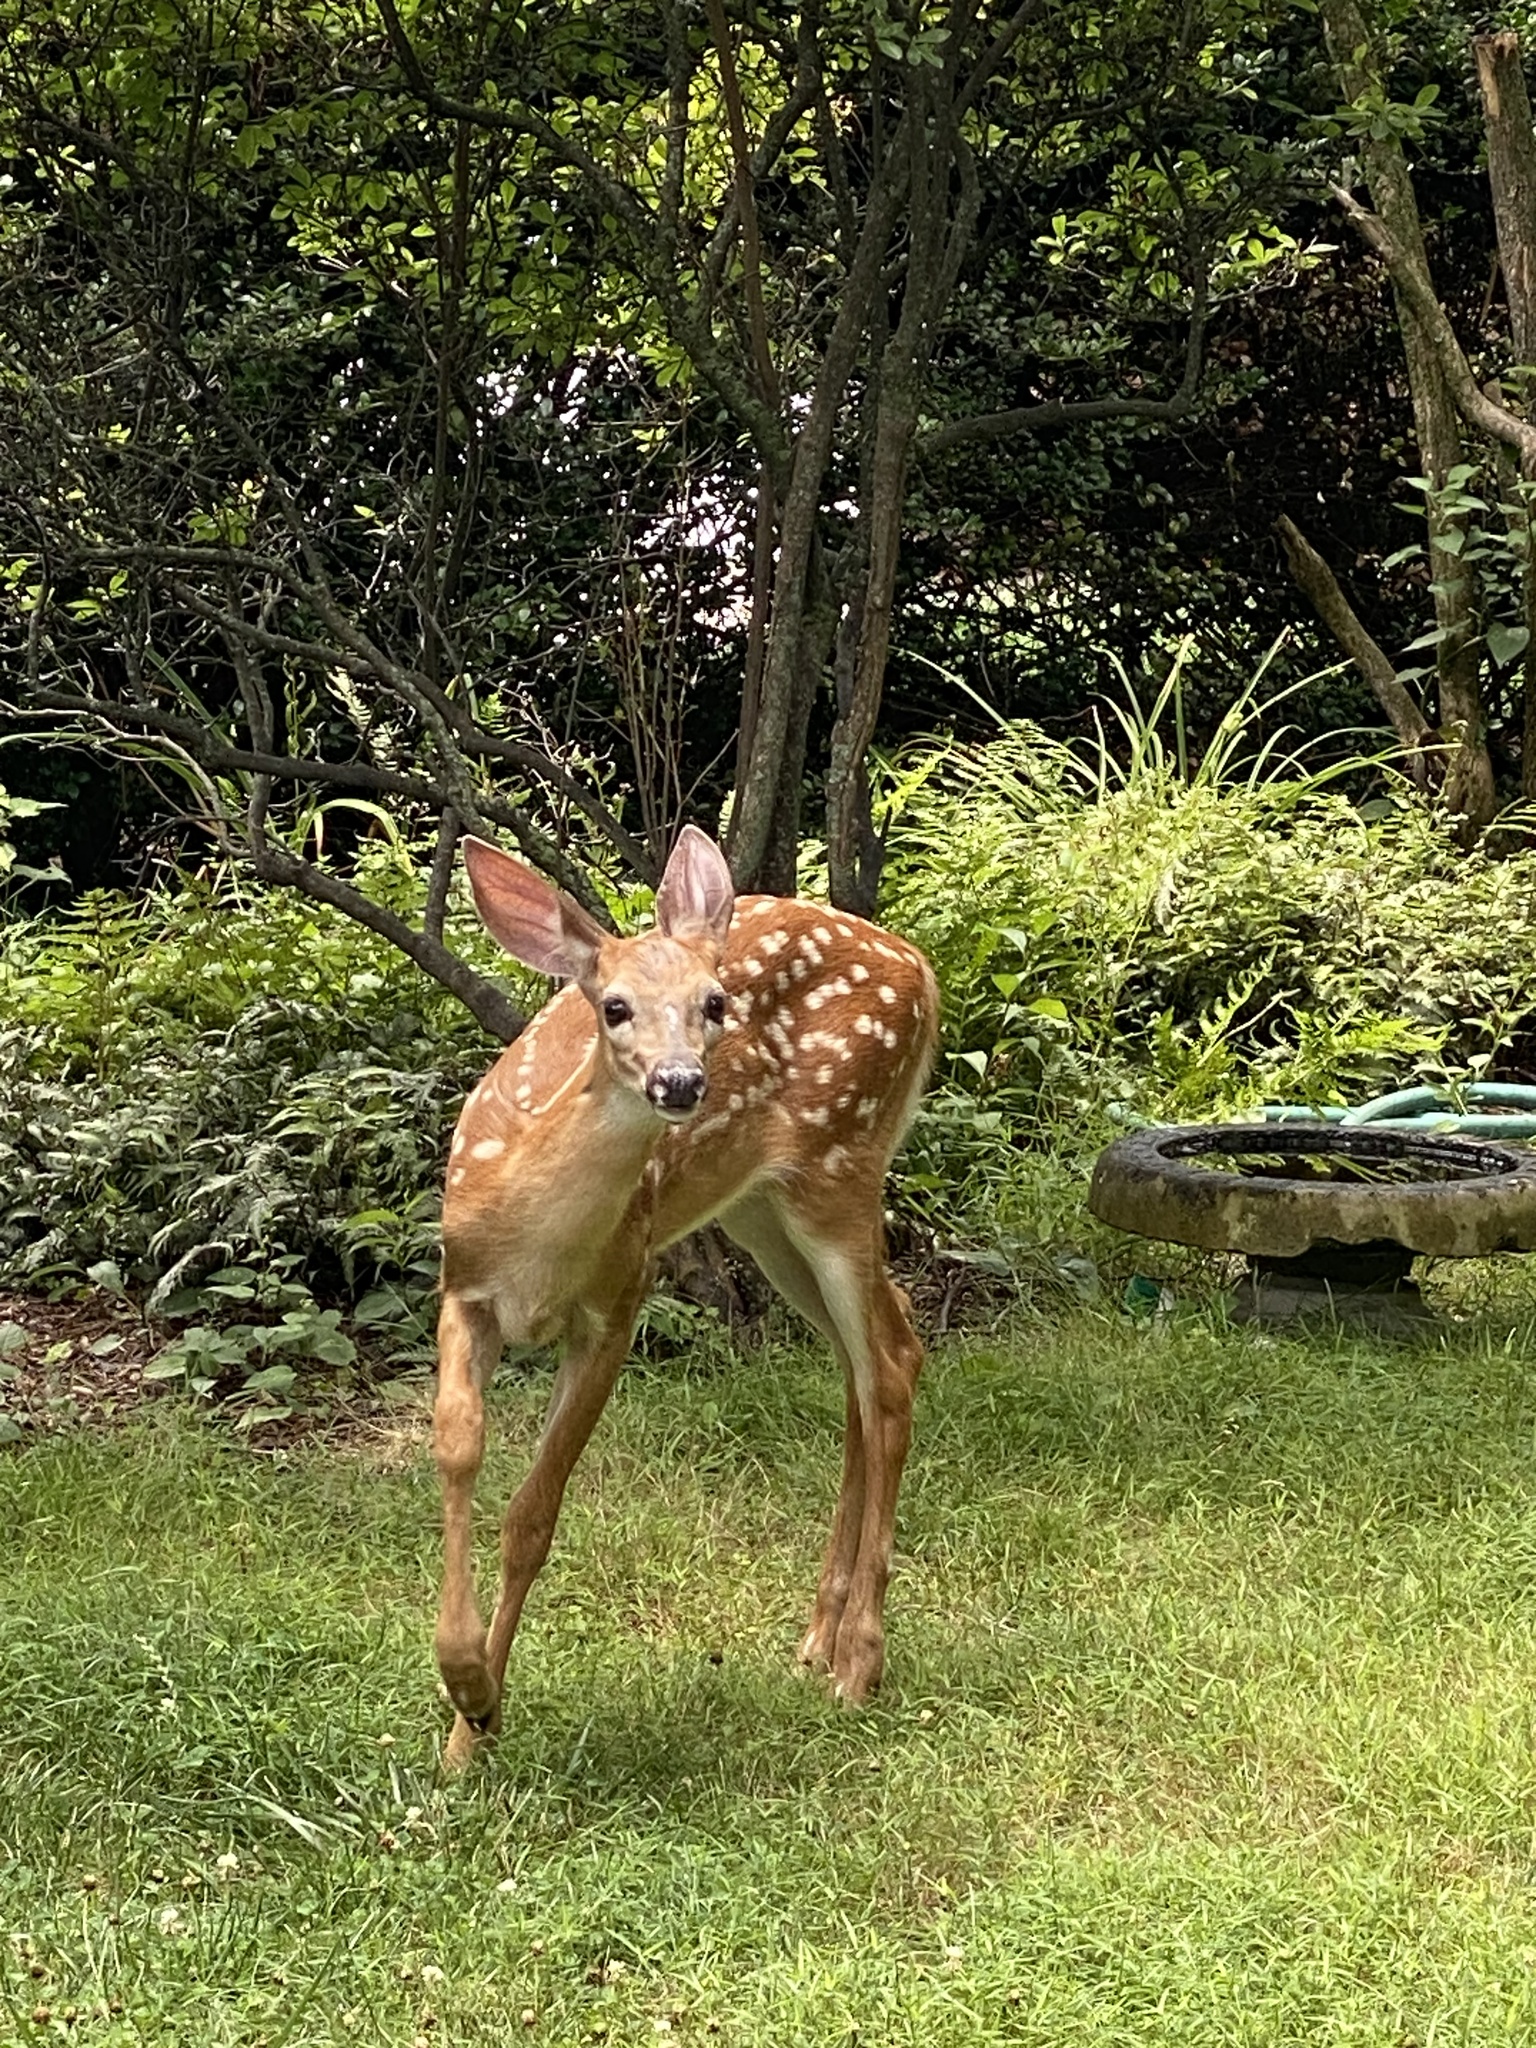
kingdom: Animalia
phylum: Chordata
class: Mammalia
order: Artiodactyla
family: Cervidae
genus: Odocoileus
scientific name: Odocoileus virginianus
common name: White-tailed deer
